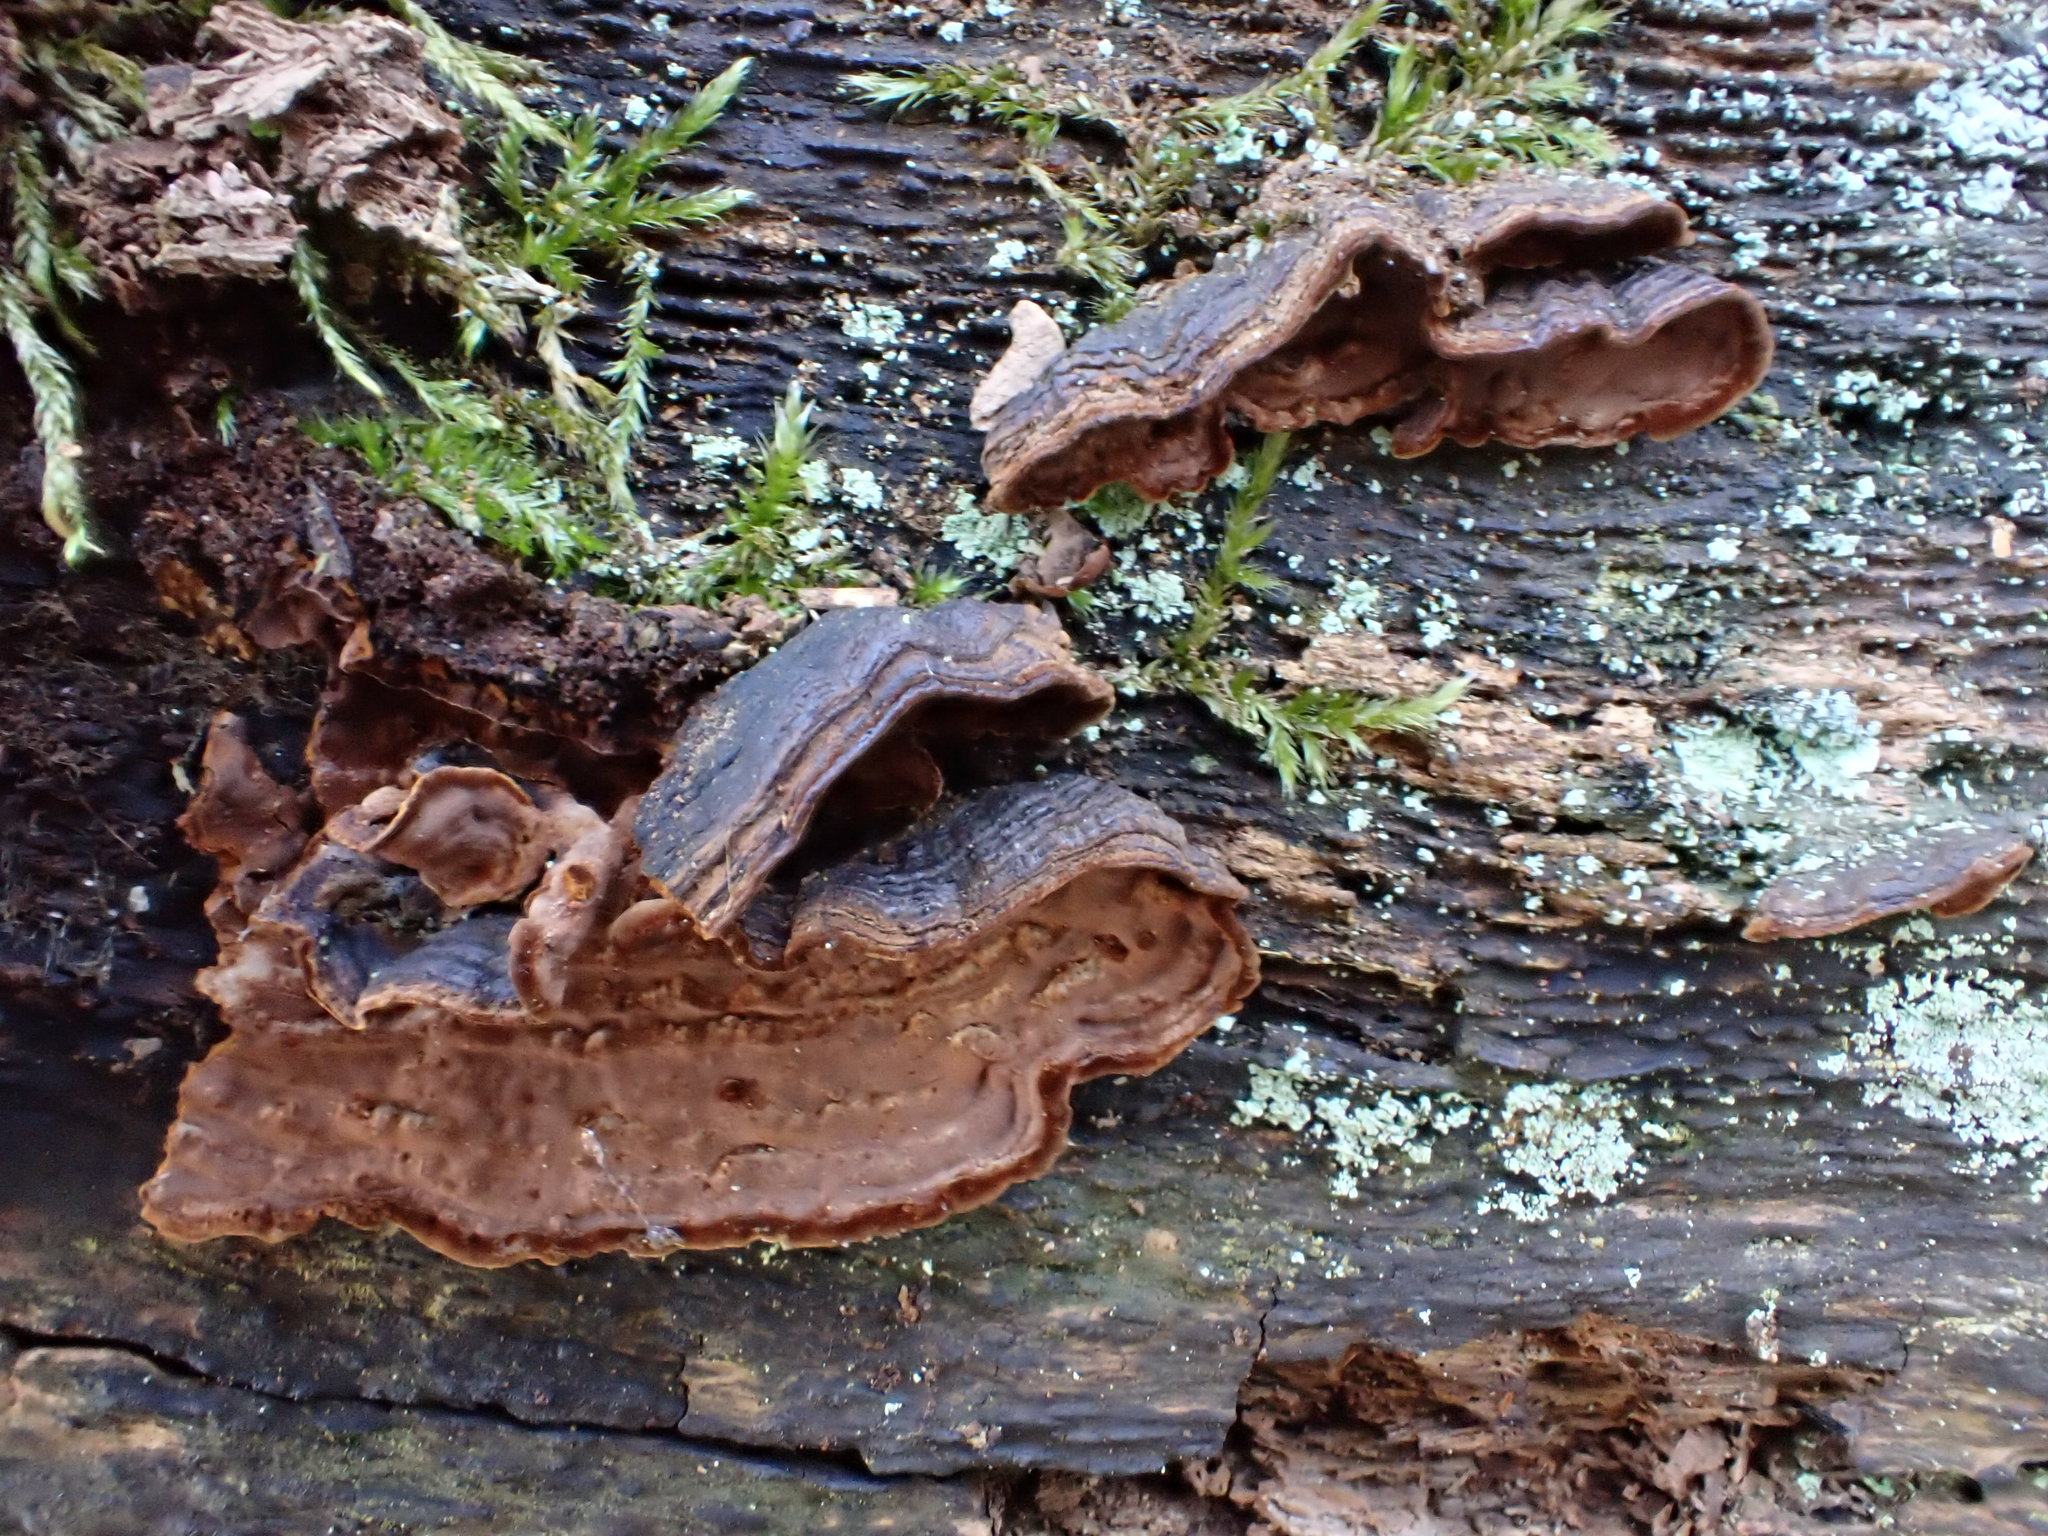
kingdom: Fungi
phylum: Basidiomycota
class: Agaricomycetes
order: Hymenochaetales
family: Hymenochaetaceae
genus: Hymenochaete
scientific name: Hymenochaete rubiginosa
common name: Oak curtain crust
